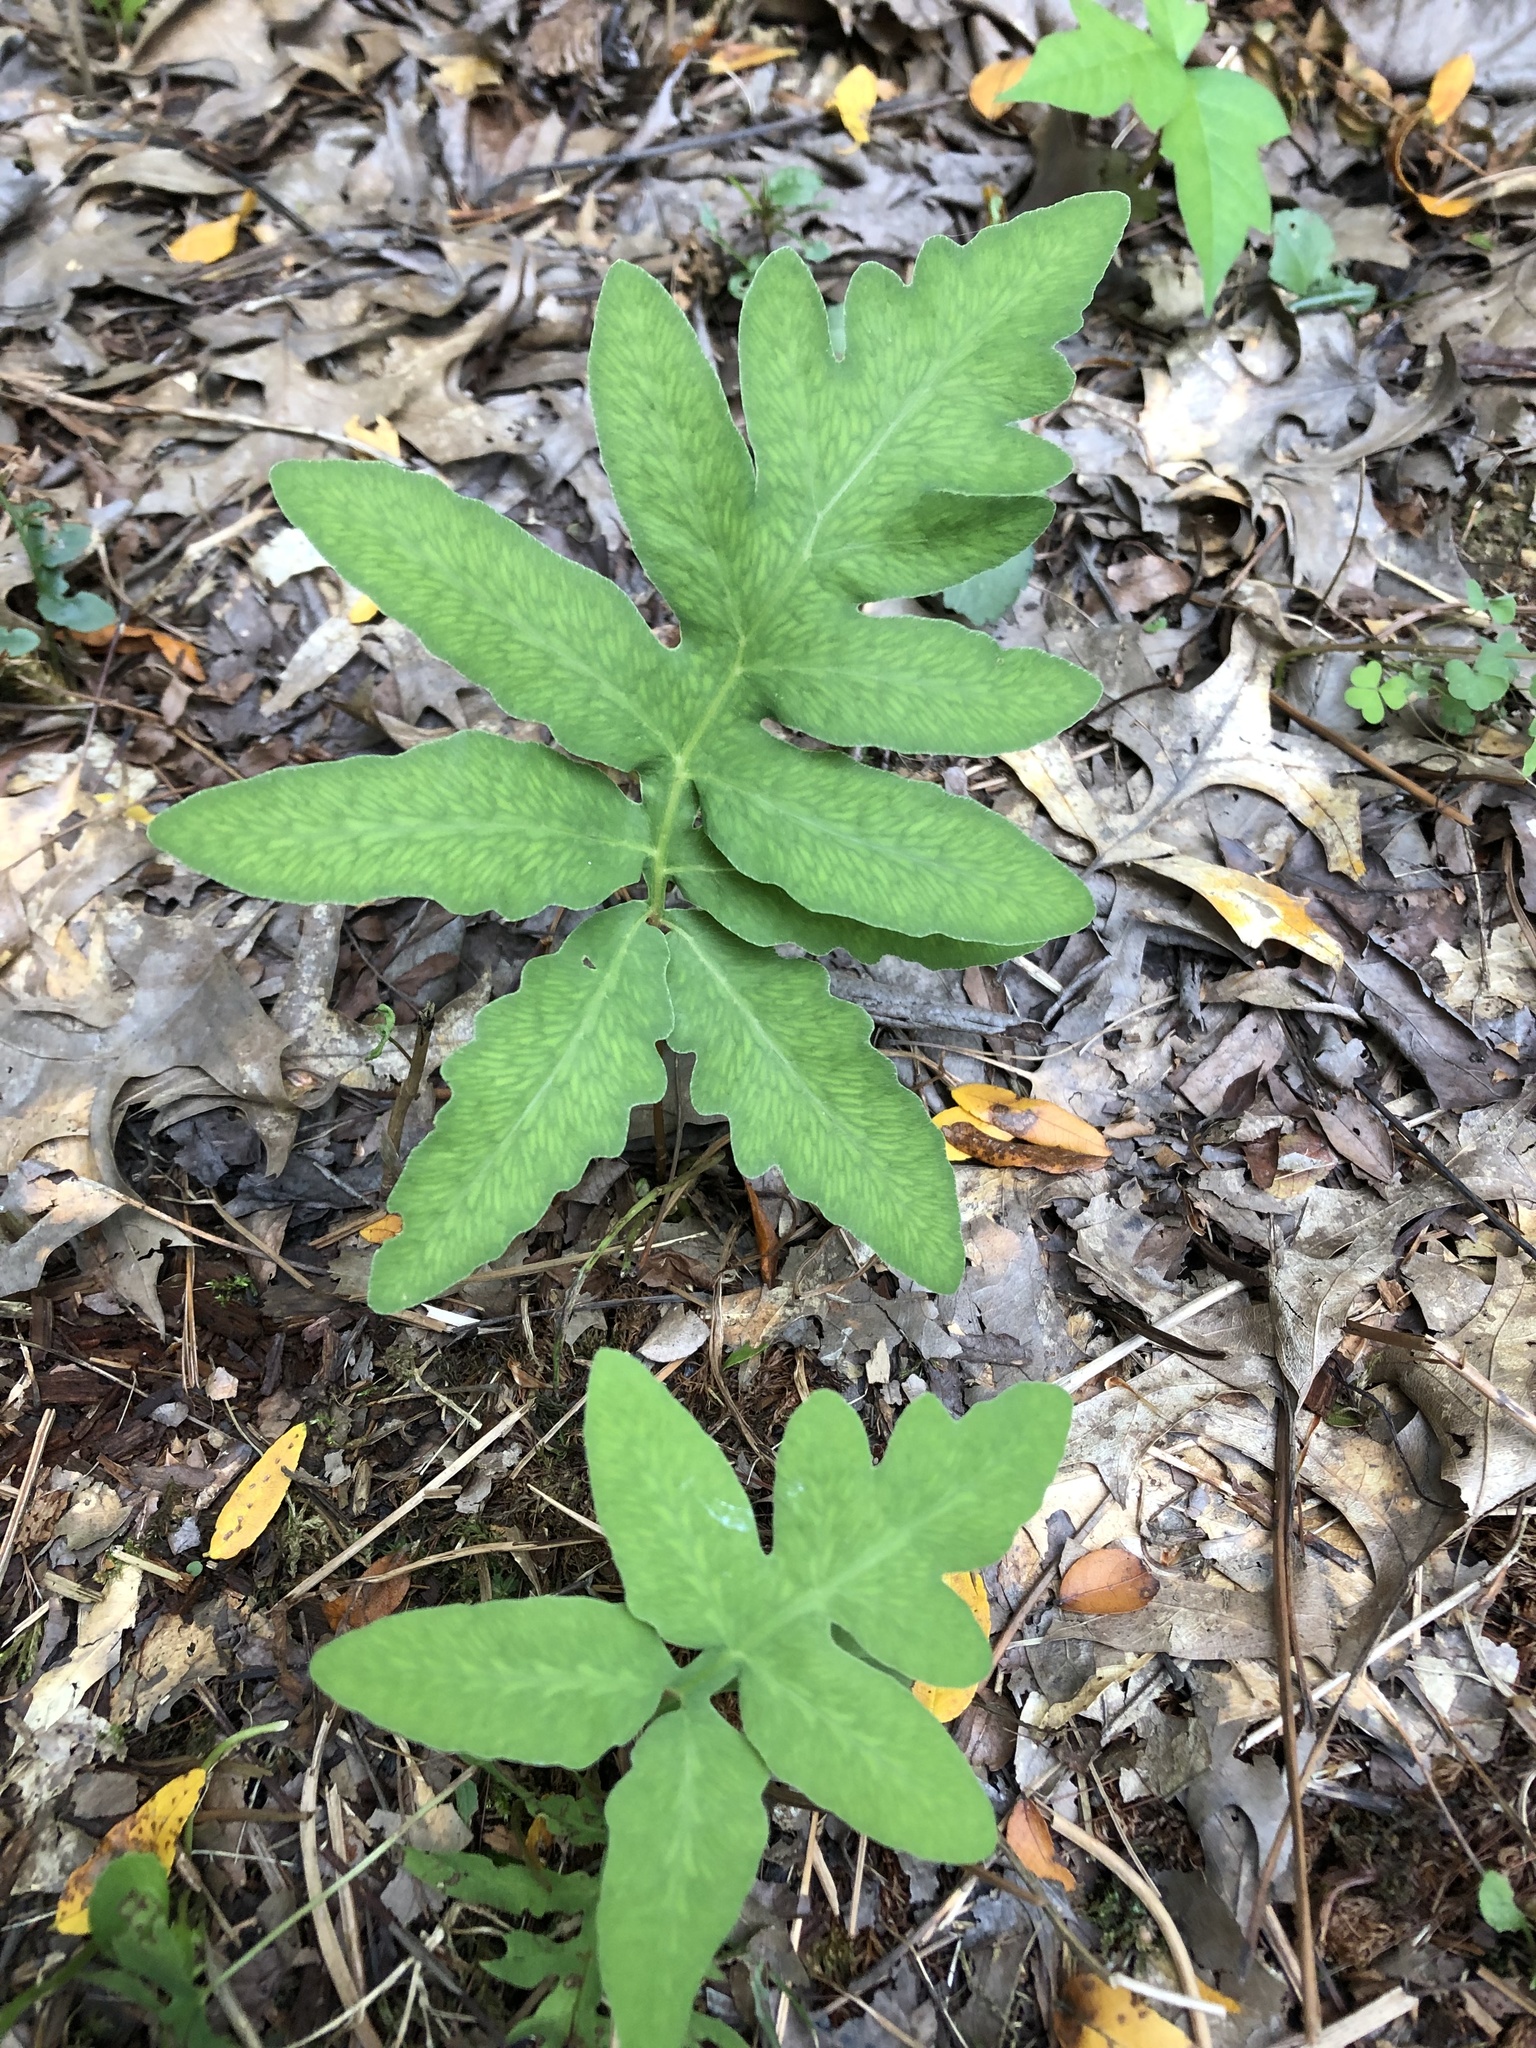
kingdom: Plantae
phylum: Tracheophyta
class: Polypodiopsida
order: Polypodiales
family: Onocleaceae
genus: Onoclea
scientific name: Onoclea sensibilis
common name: Sensitive fern
